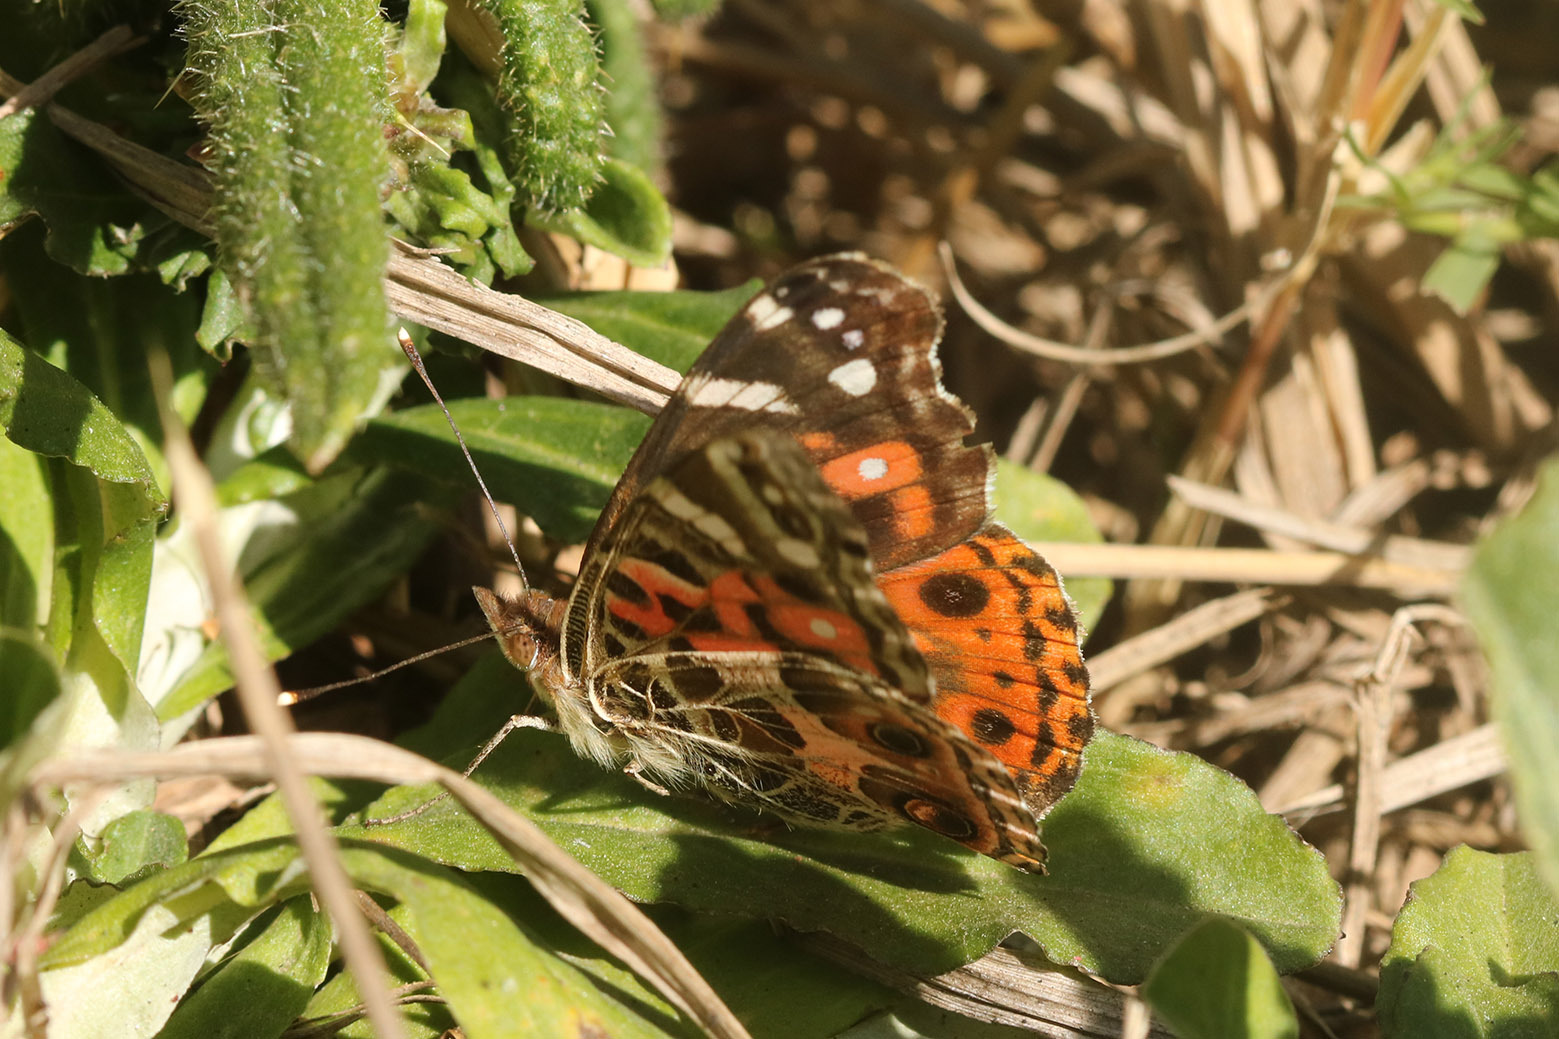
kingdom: Animalia
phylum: Arthropoda
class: Insecta
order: Lepidoptera
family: Nymphalidae
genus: Vanessa
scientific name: Vanessa braziliensis
